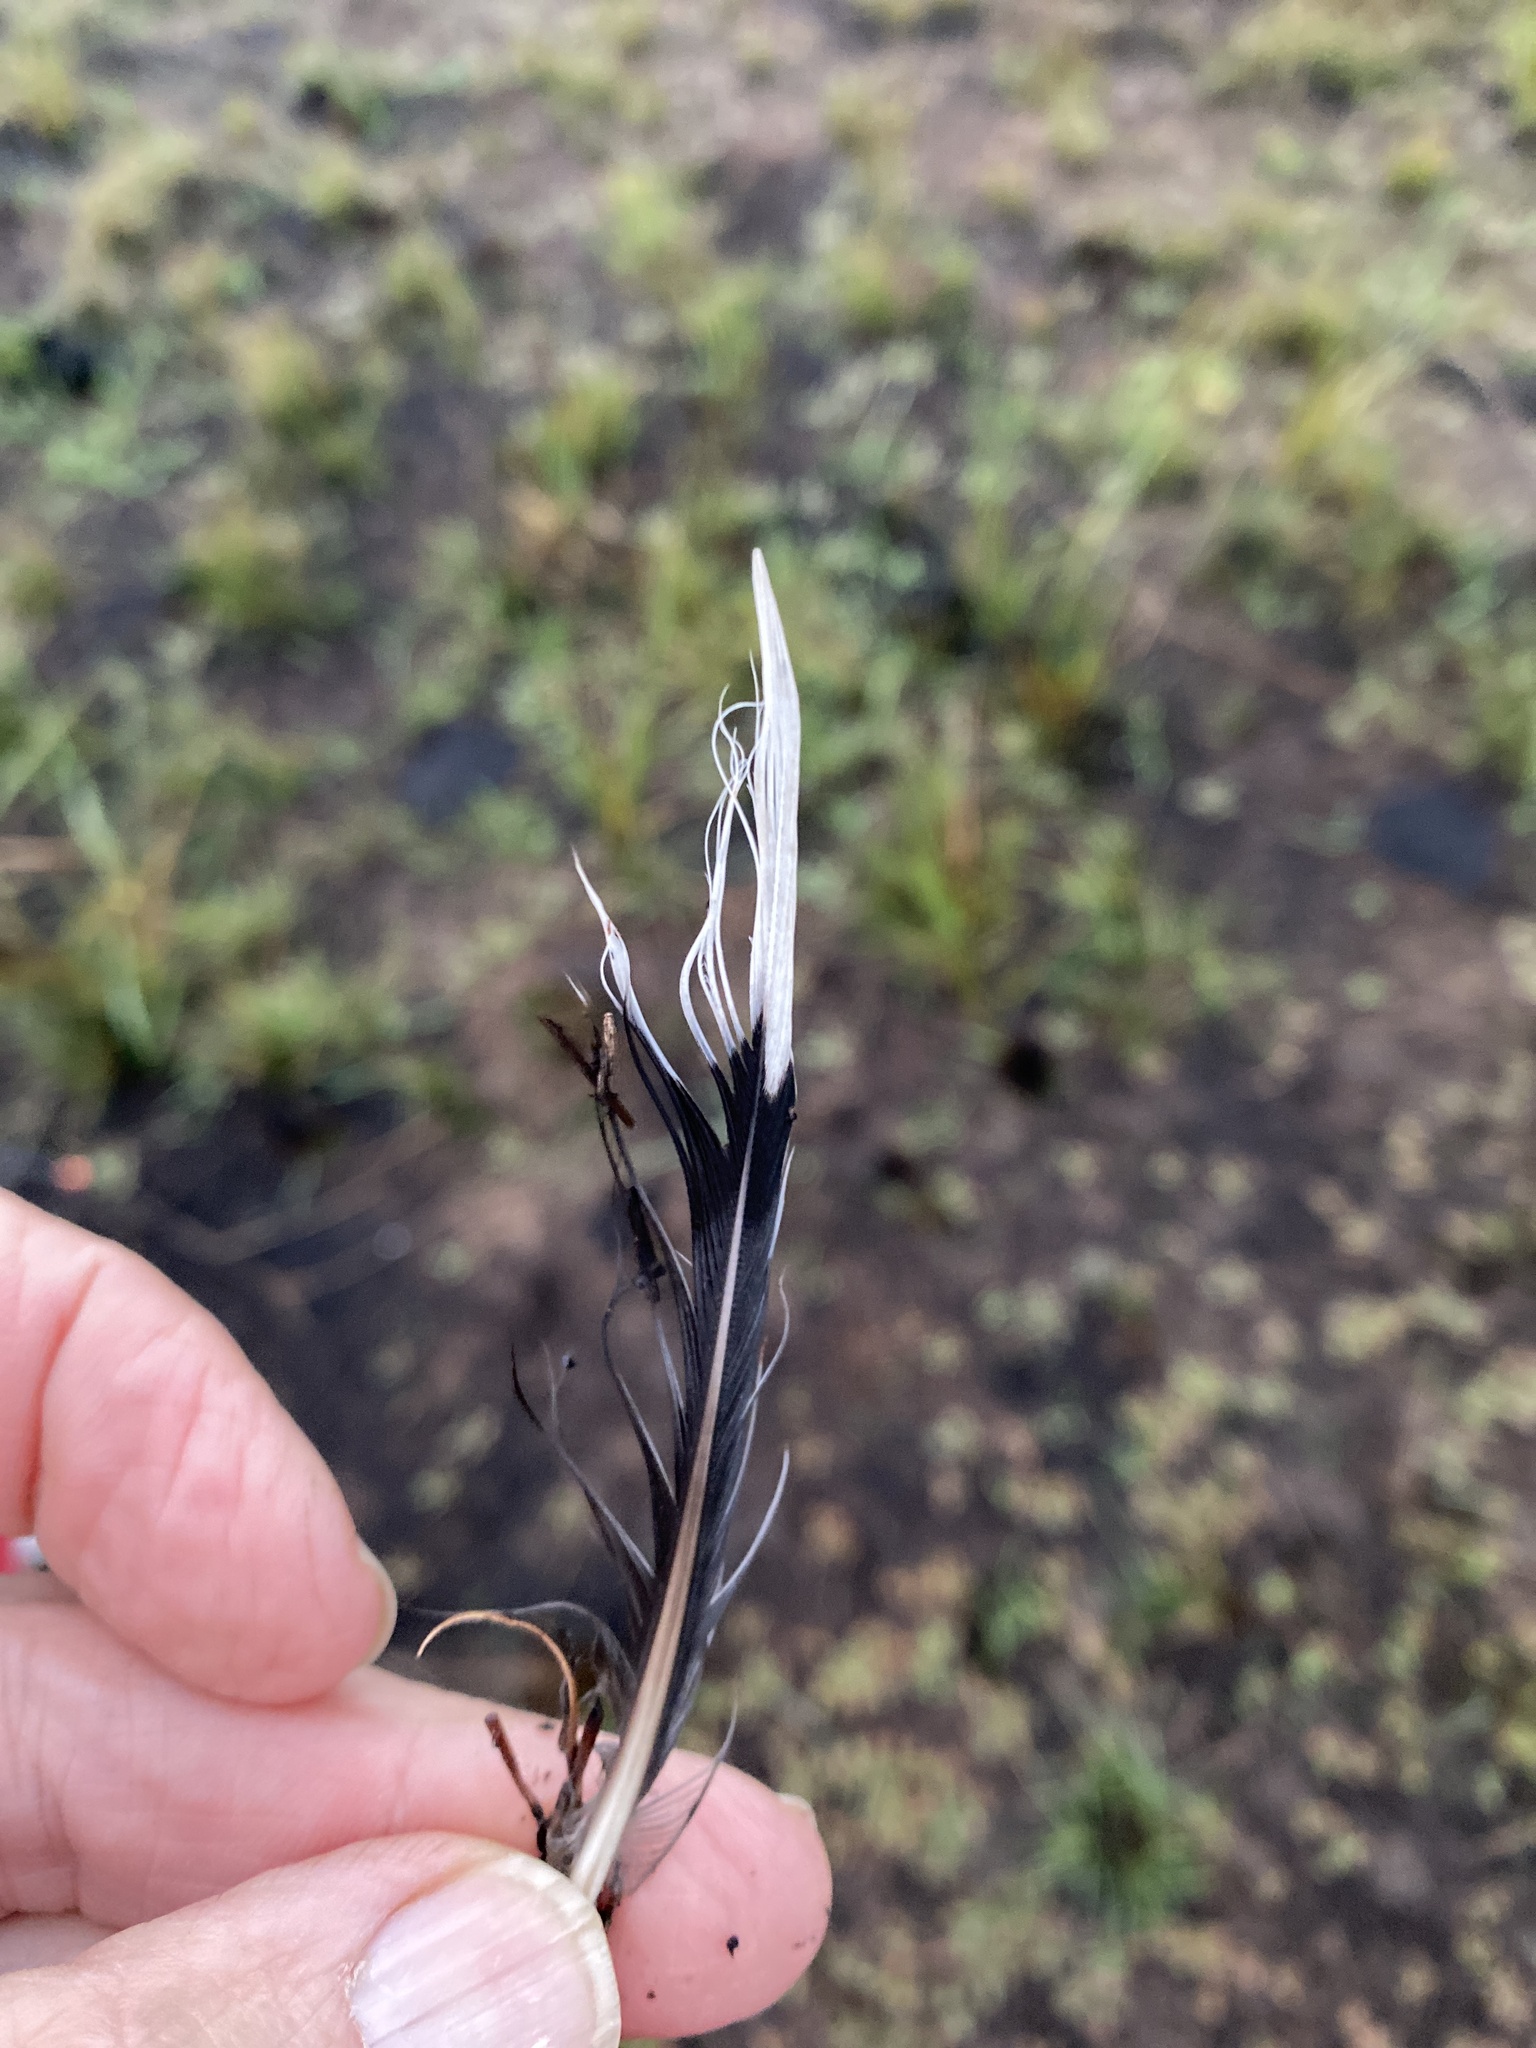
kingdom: Animalia
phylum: Chordata
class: Aves
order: Columbiformes
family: Columbidae
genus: Zenaida
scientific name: Zenaida macroura
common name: Mourning dove
